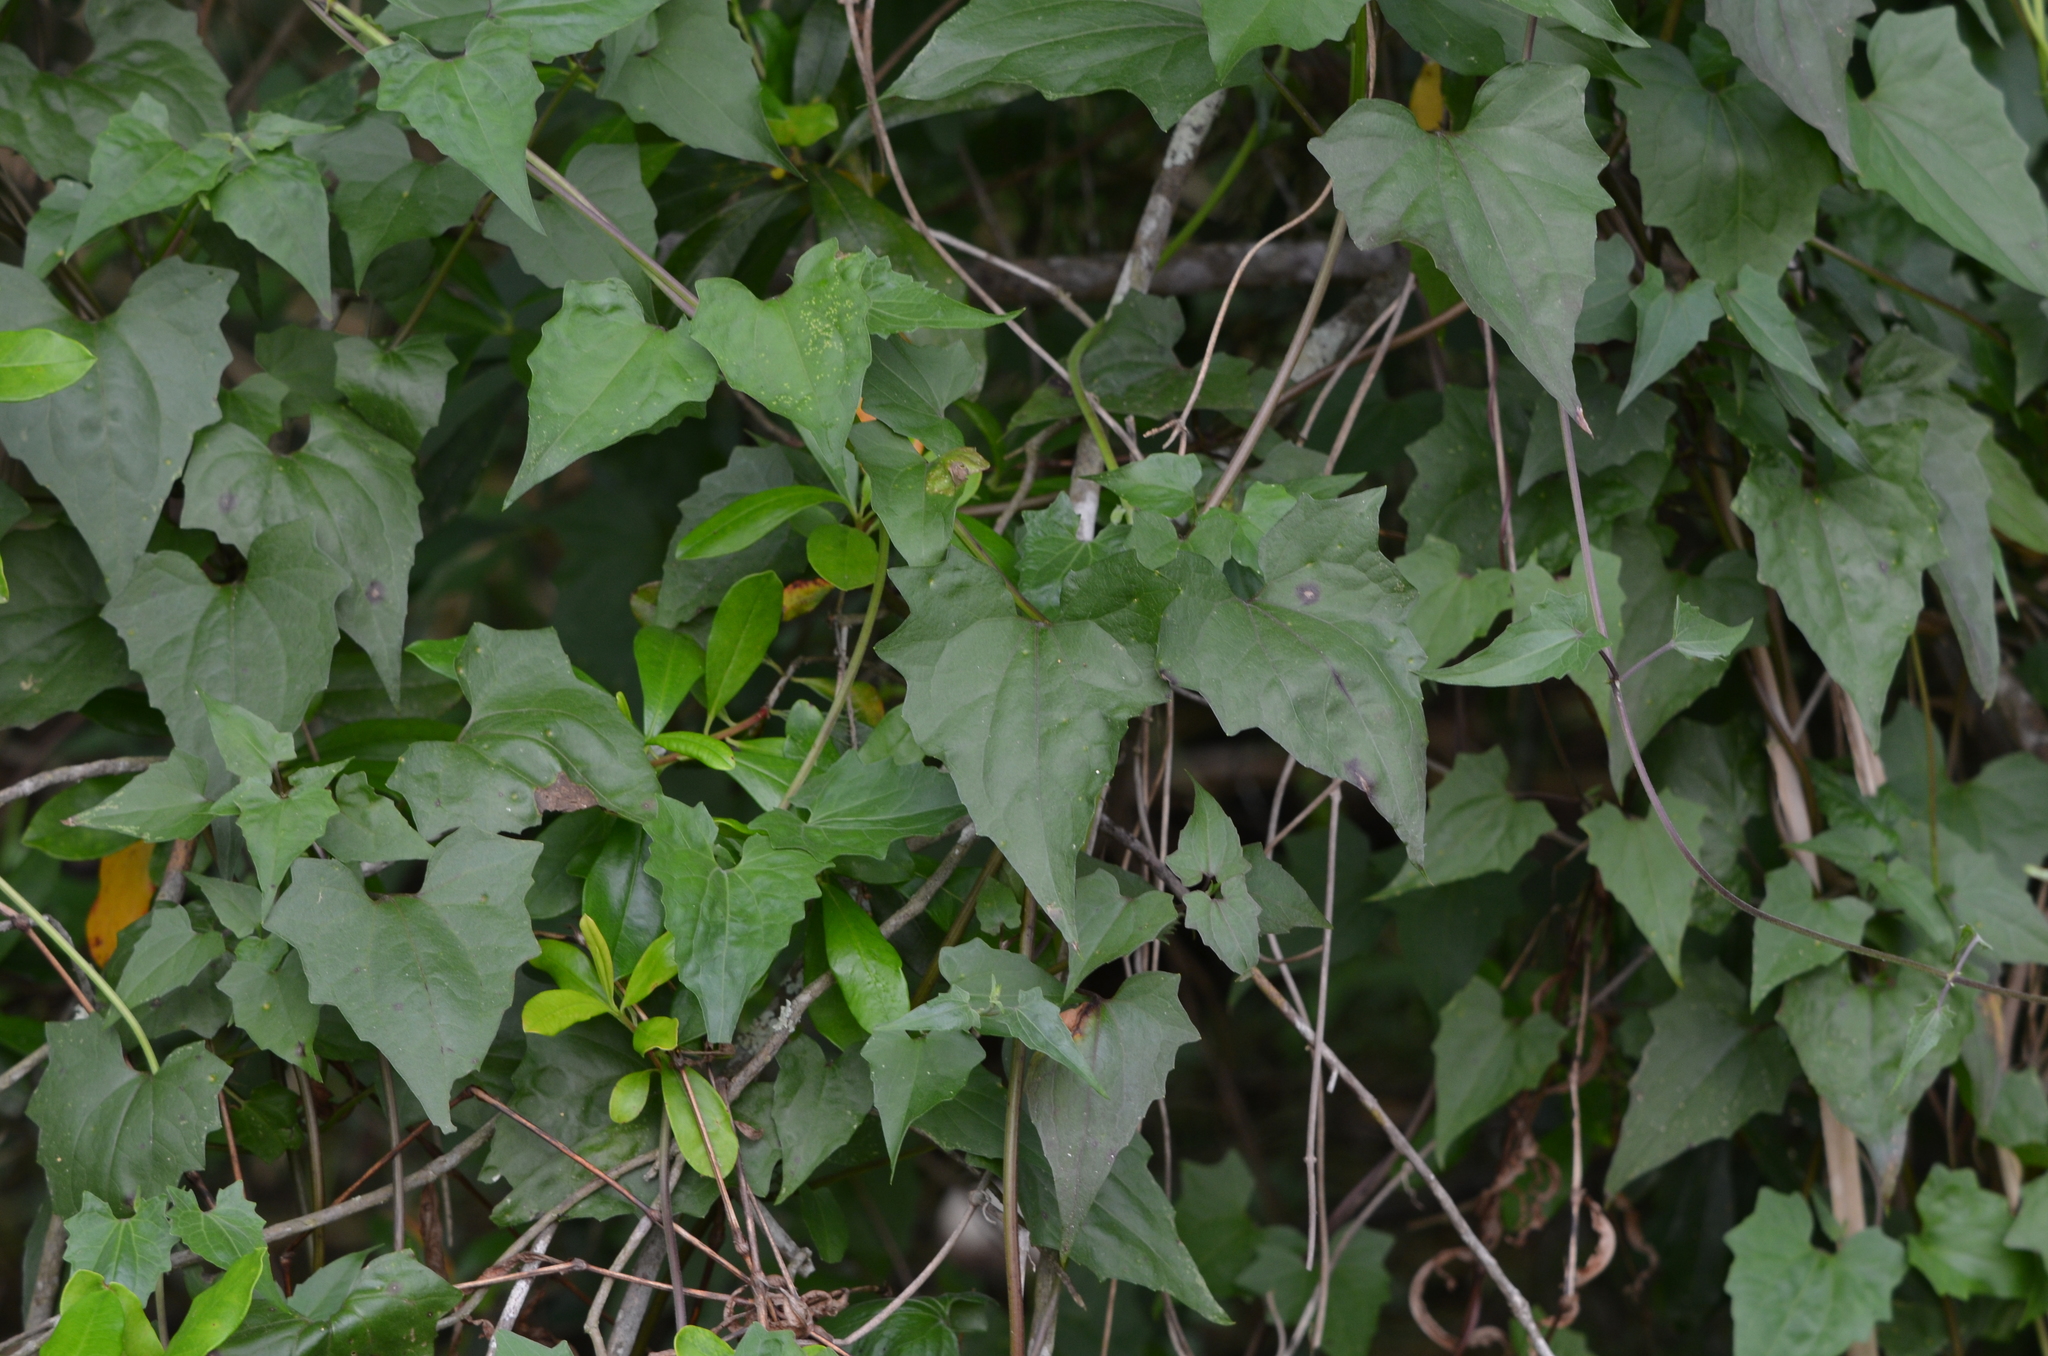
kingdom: Plantae
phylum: Tracheophyta
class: Magnoliopsida
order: Asterales
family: Asteraceae
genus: Mikania
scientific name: Mikania scandens
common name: Climbing hempvine
